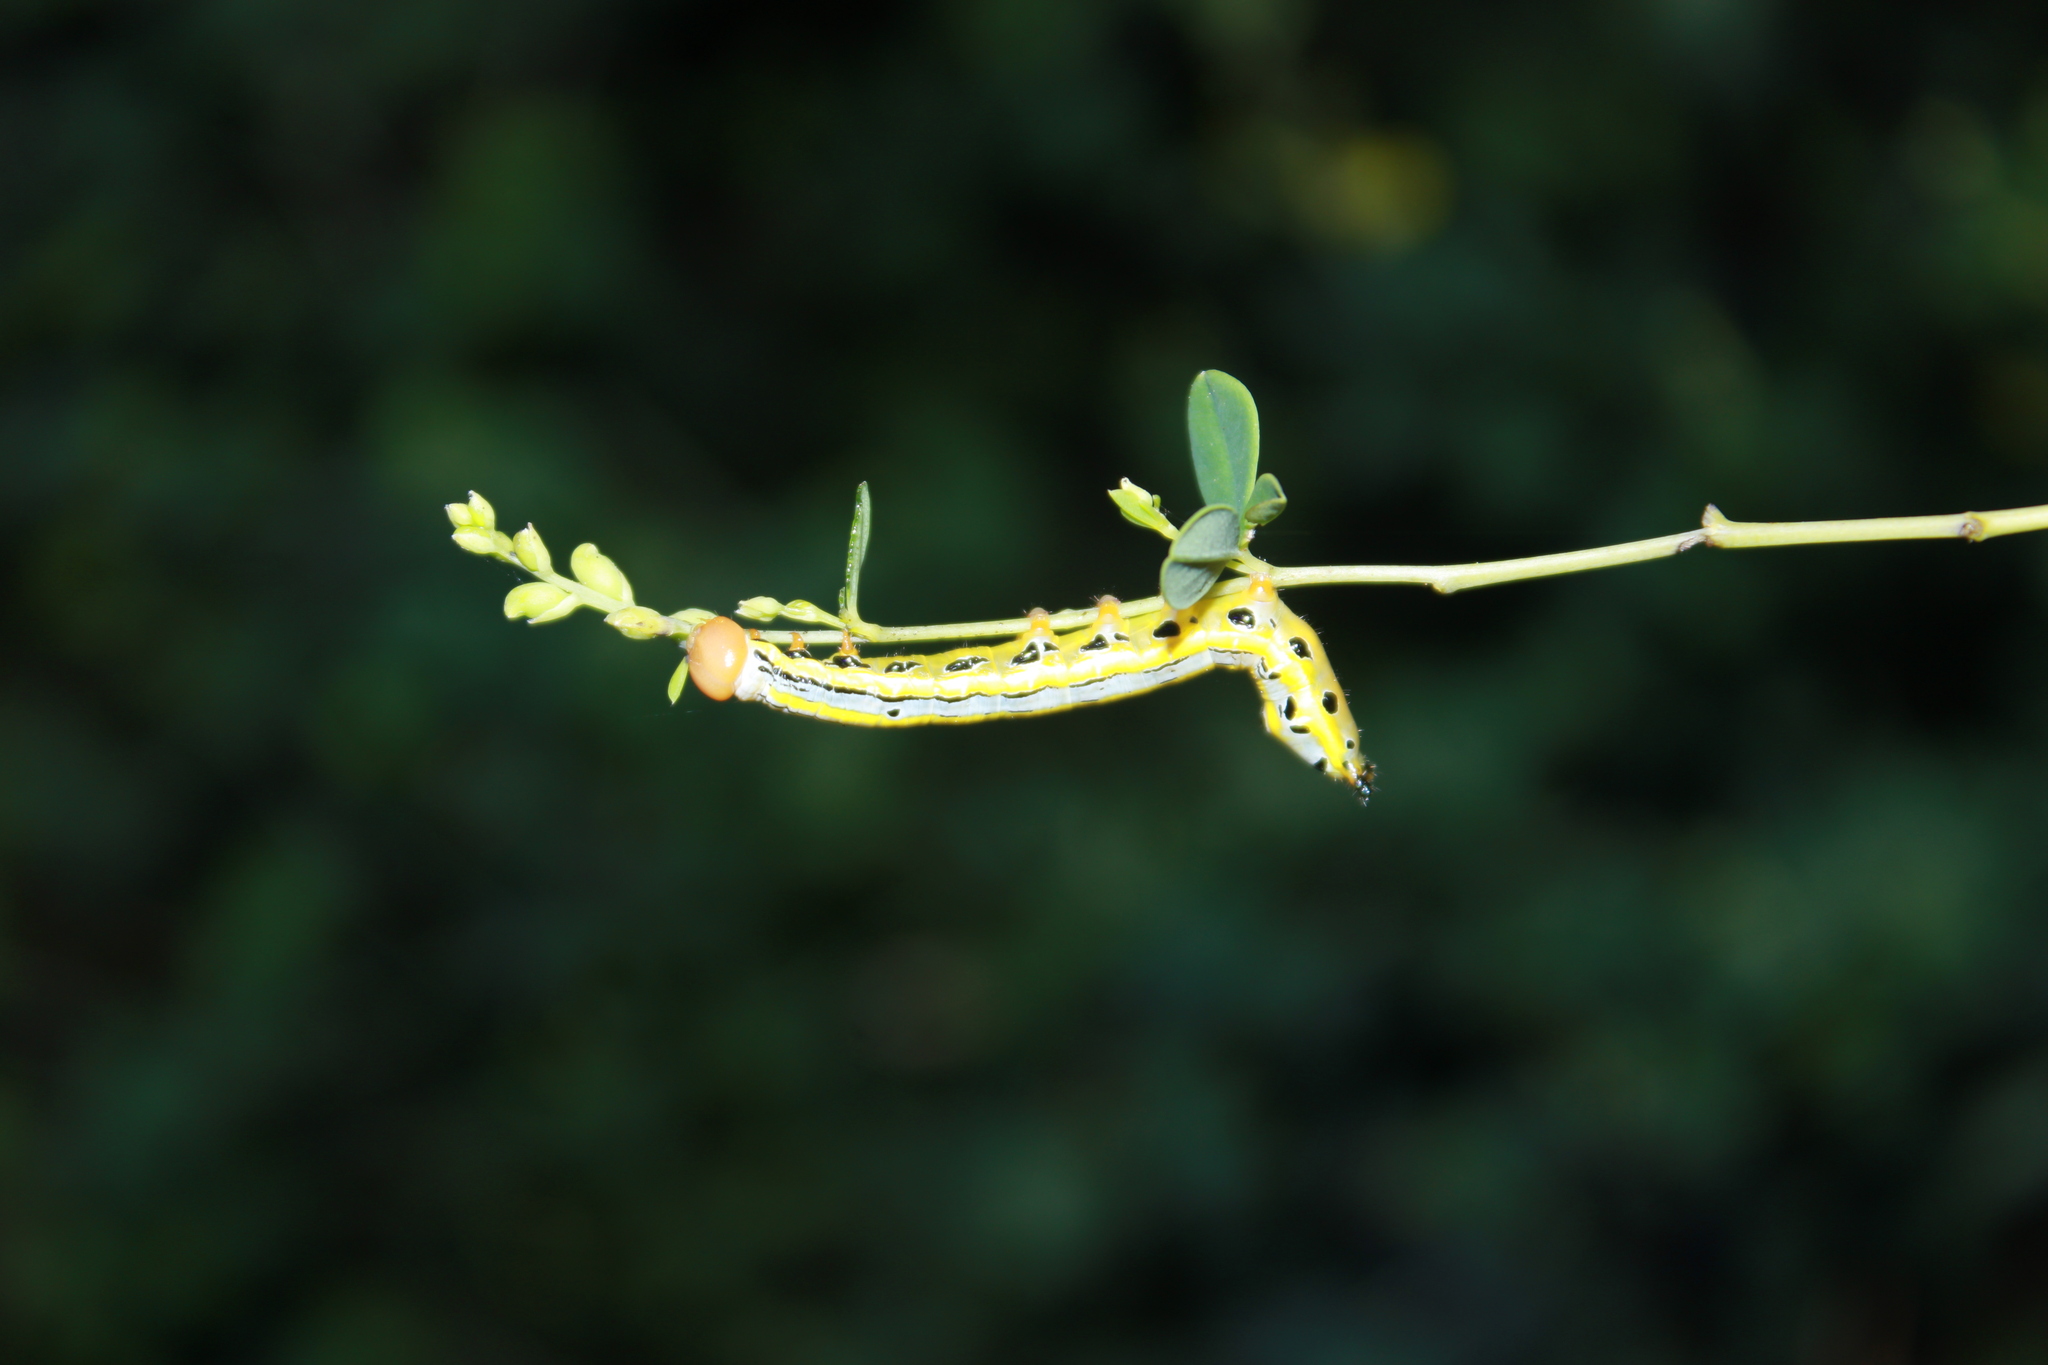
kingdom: Animalia
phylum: Arthropoda
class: Insecta
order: Lepidoptera
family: Notodontidae
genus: Dasylophia
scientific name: Dasylophia anguina
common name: Black-spotted prominent
